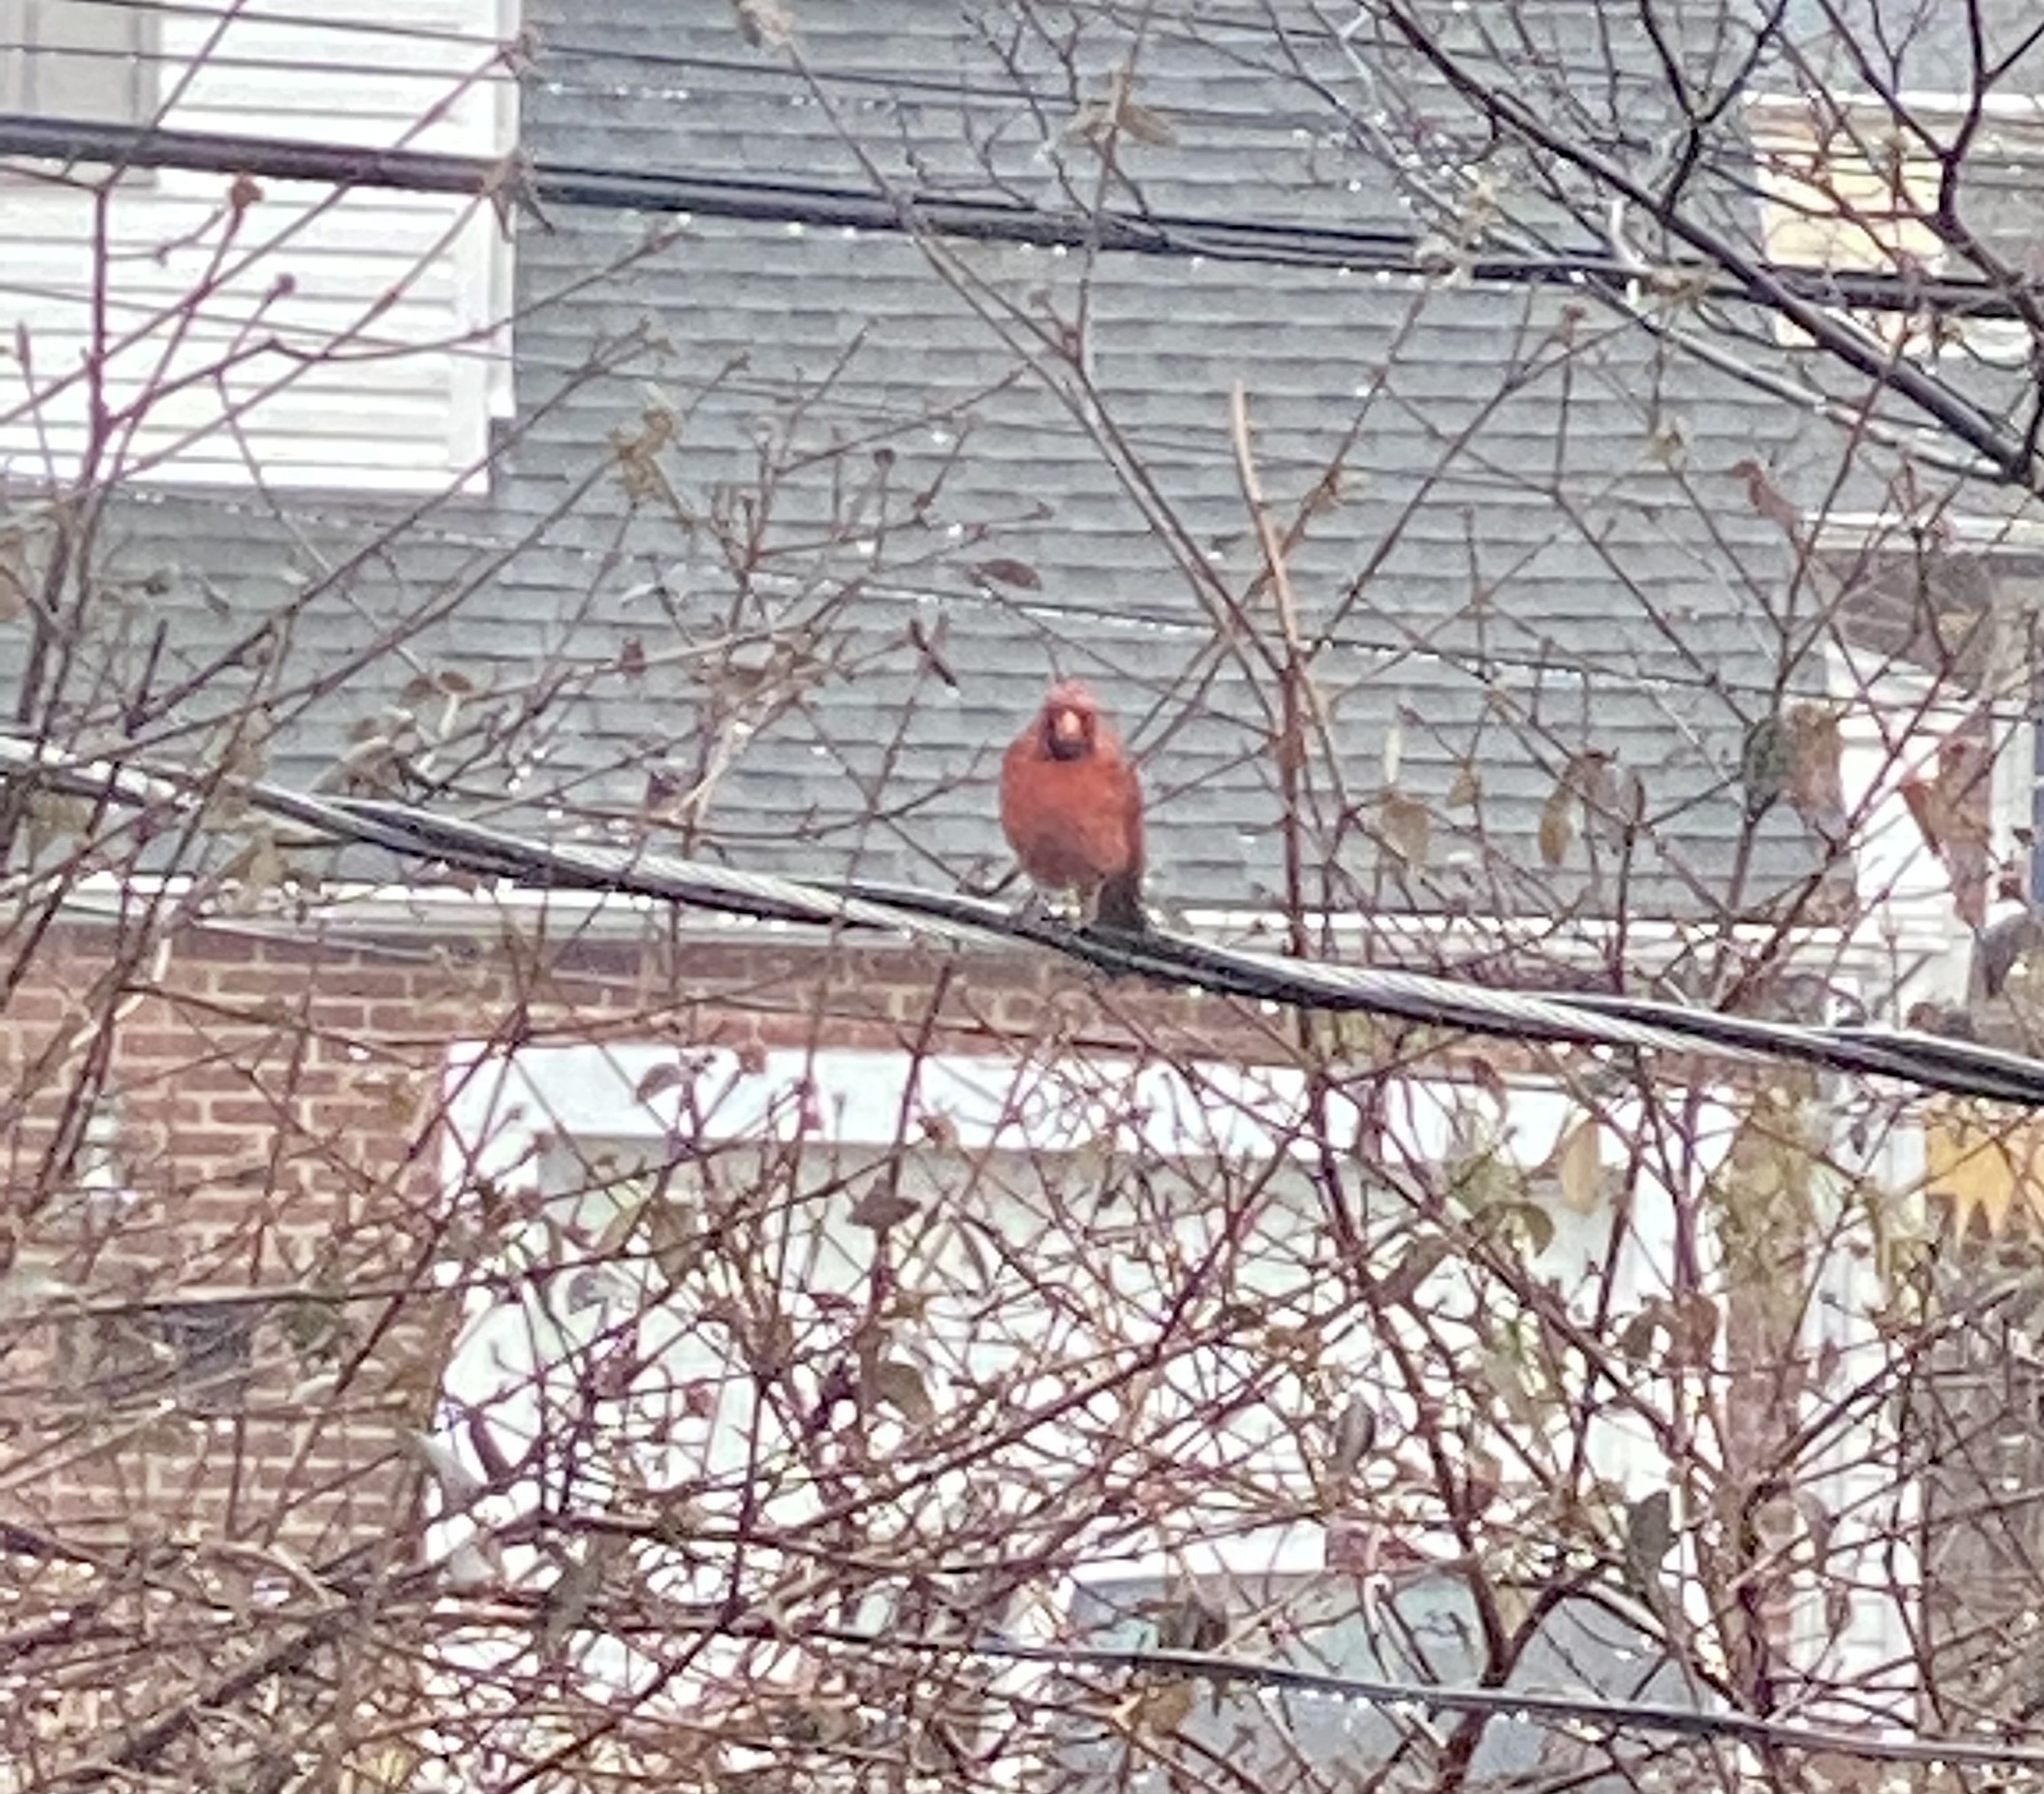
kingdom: Animalia
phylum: Chordata
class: Aves
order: Passeriformes
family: Cardinalidae
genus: Cardinalis
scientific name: Cardinalis cardinalis
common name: Northern cardinal
